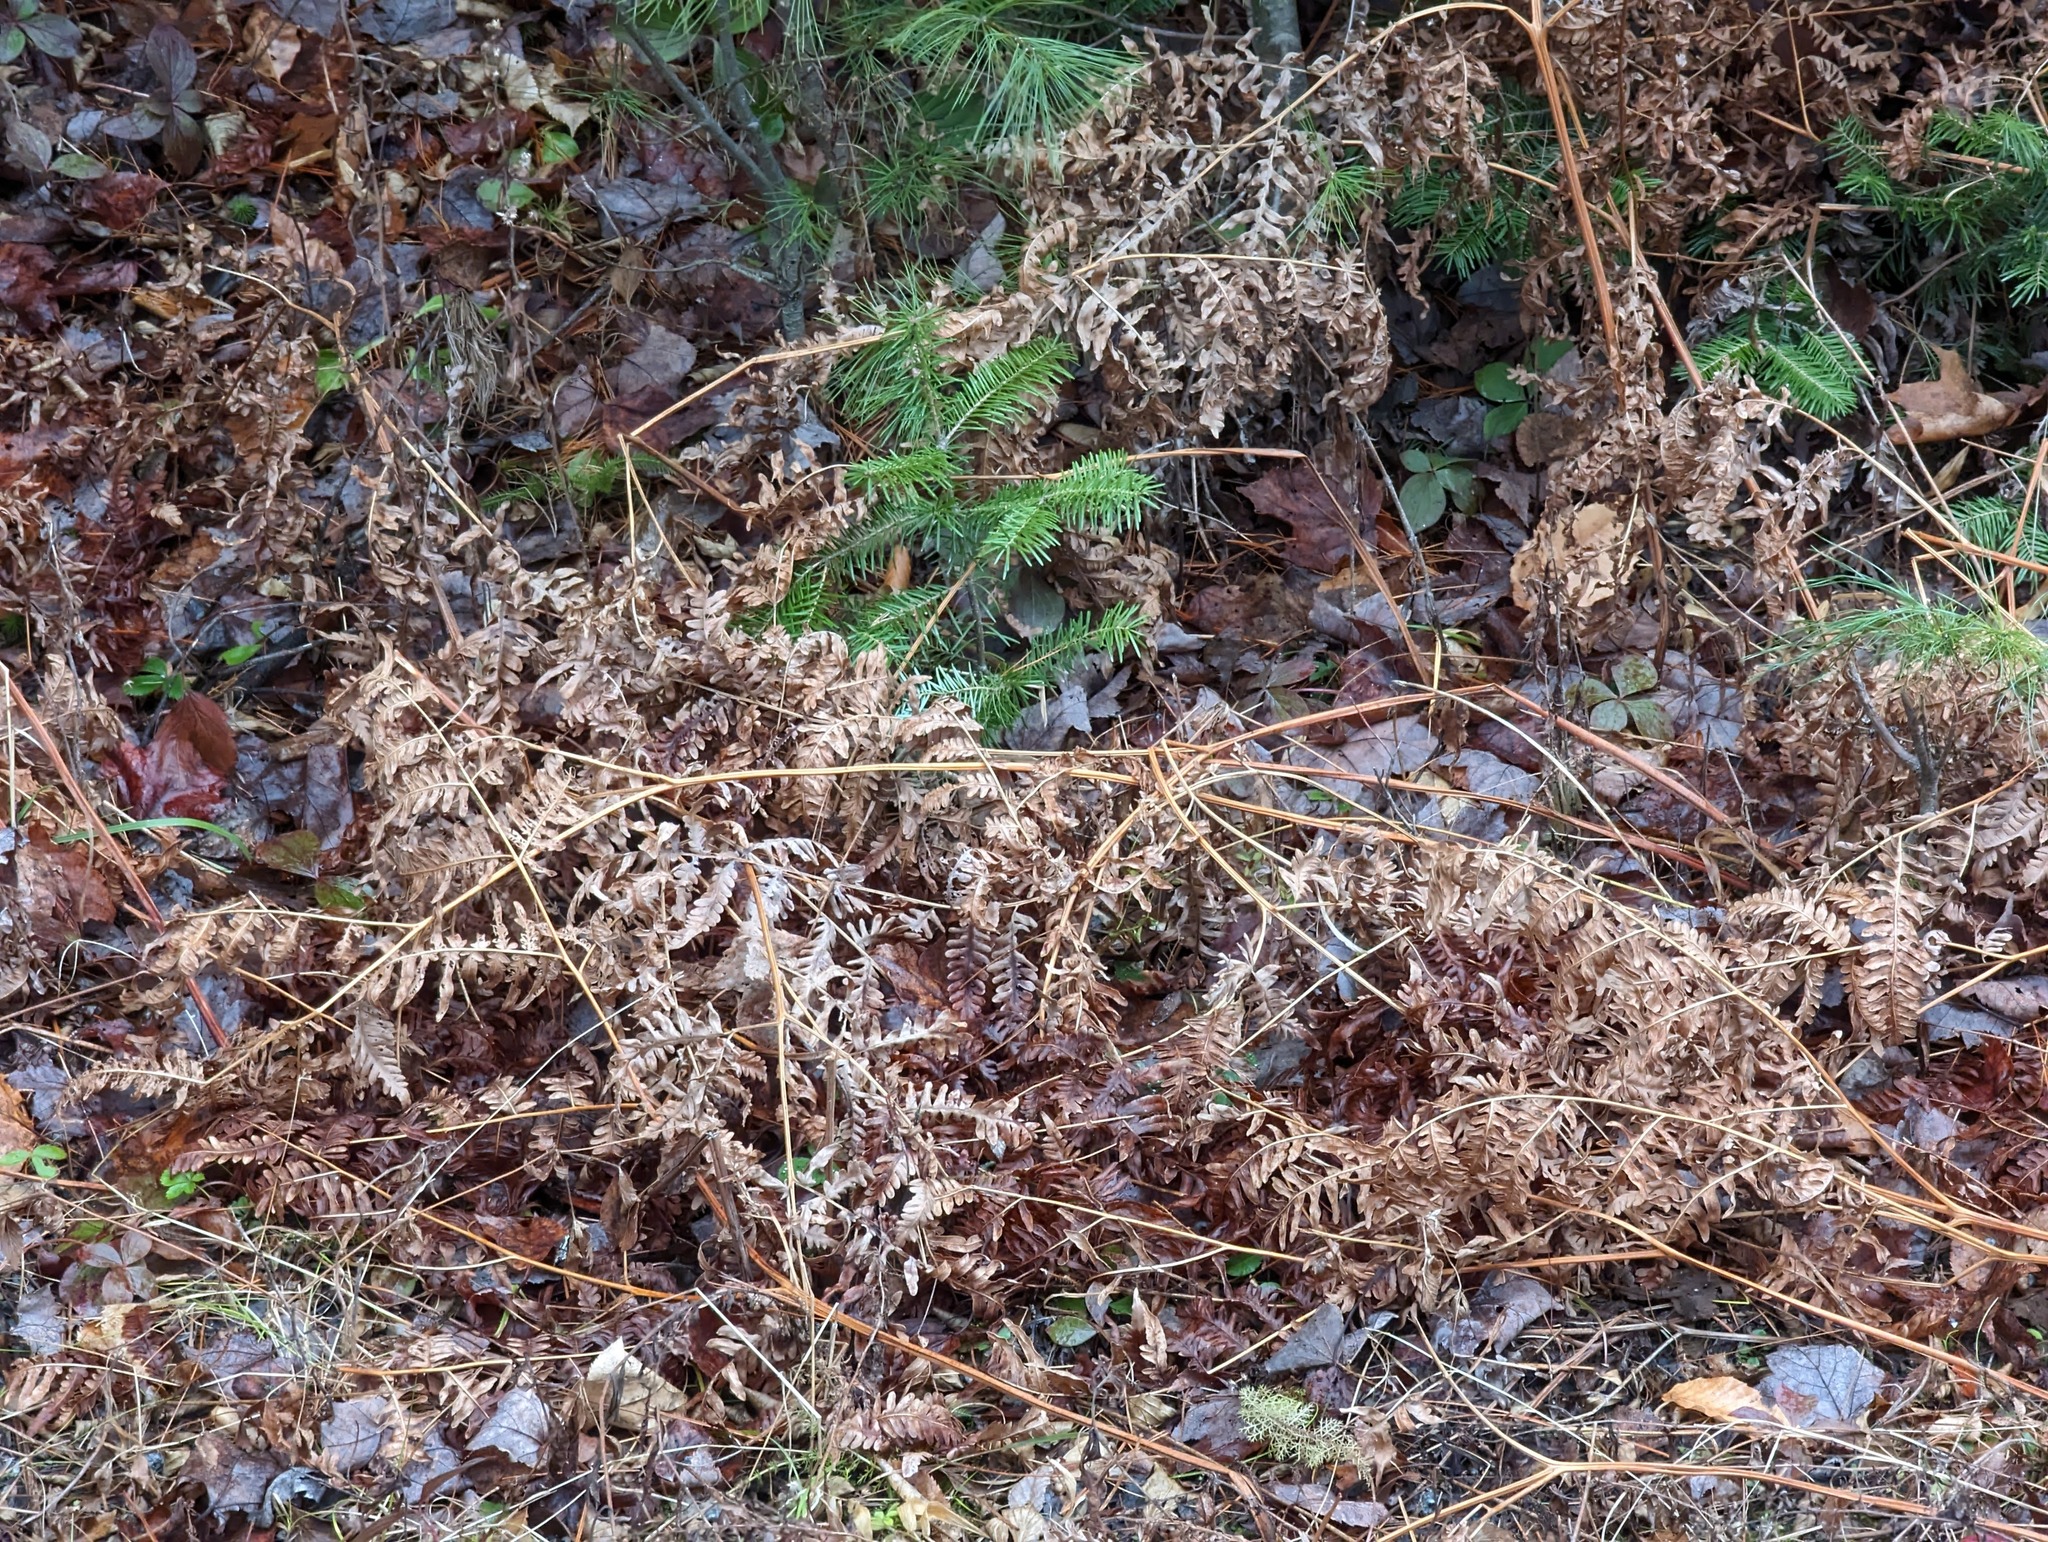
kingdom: Plantae
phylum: Tracheophyta
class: Polypodiopsida
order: Polypodiales
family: Dennstaedtiaceae
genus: Pteridium
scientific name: Pteridium aquilinum
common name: Bracken
